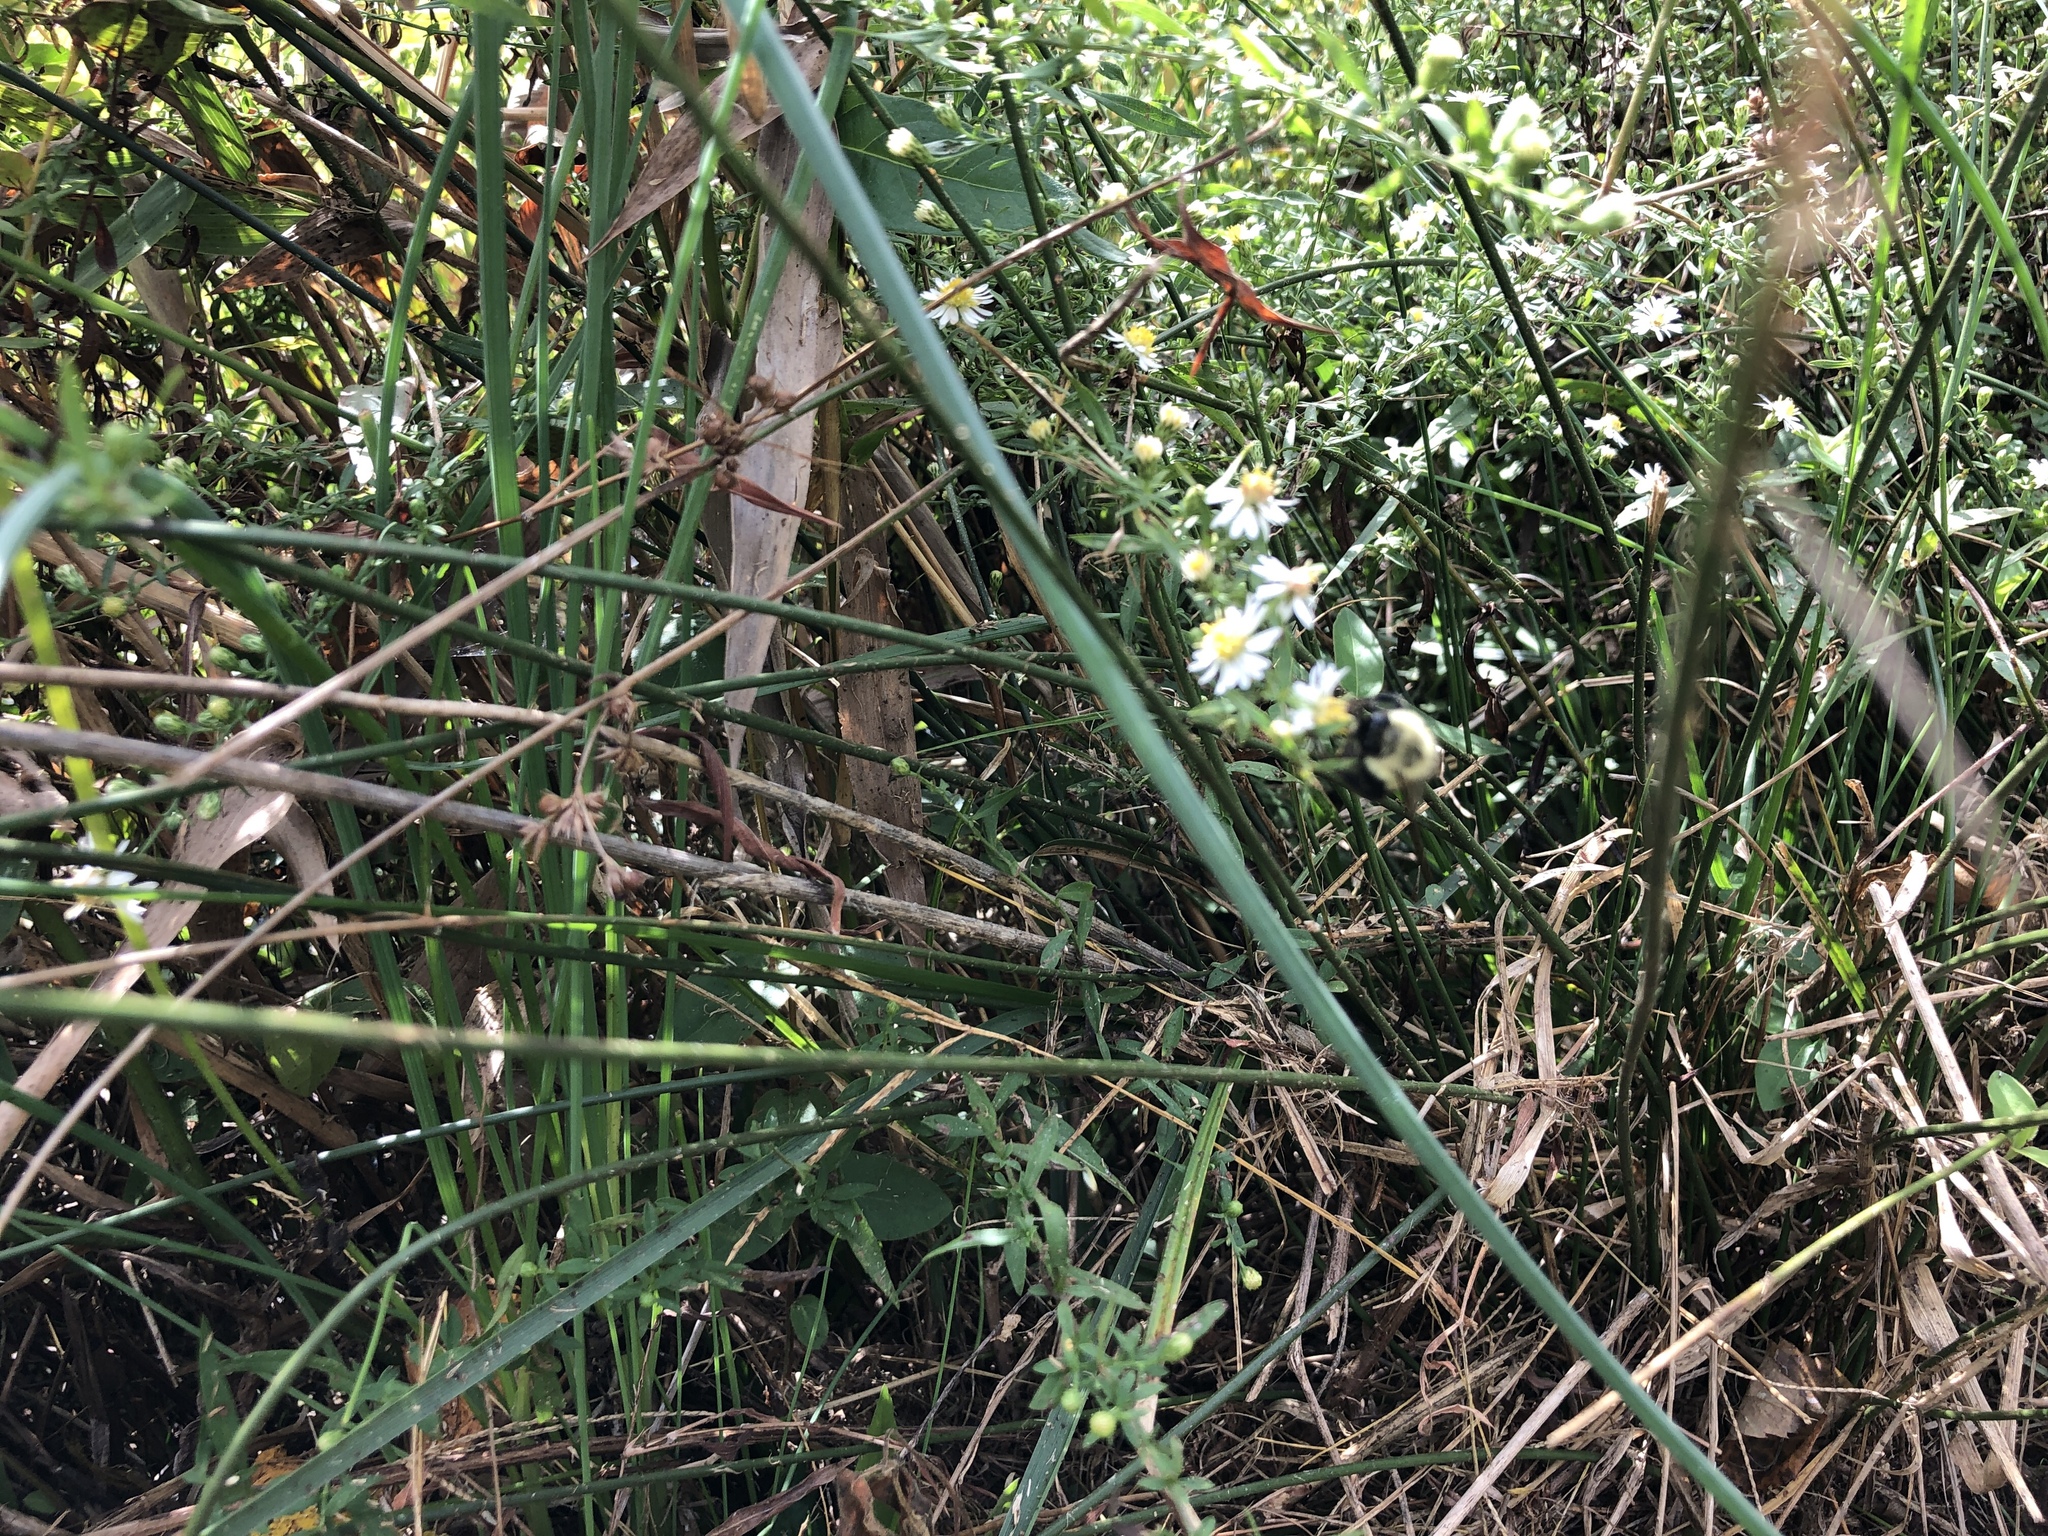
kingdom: Animalia
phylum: Arthropoda
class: Insecta
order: Hymenoptera
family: Apidae
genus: Bombus
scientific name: Bombus impatiens
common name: Common eastern bumble bee
